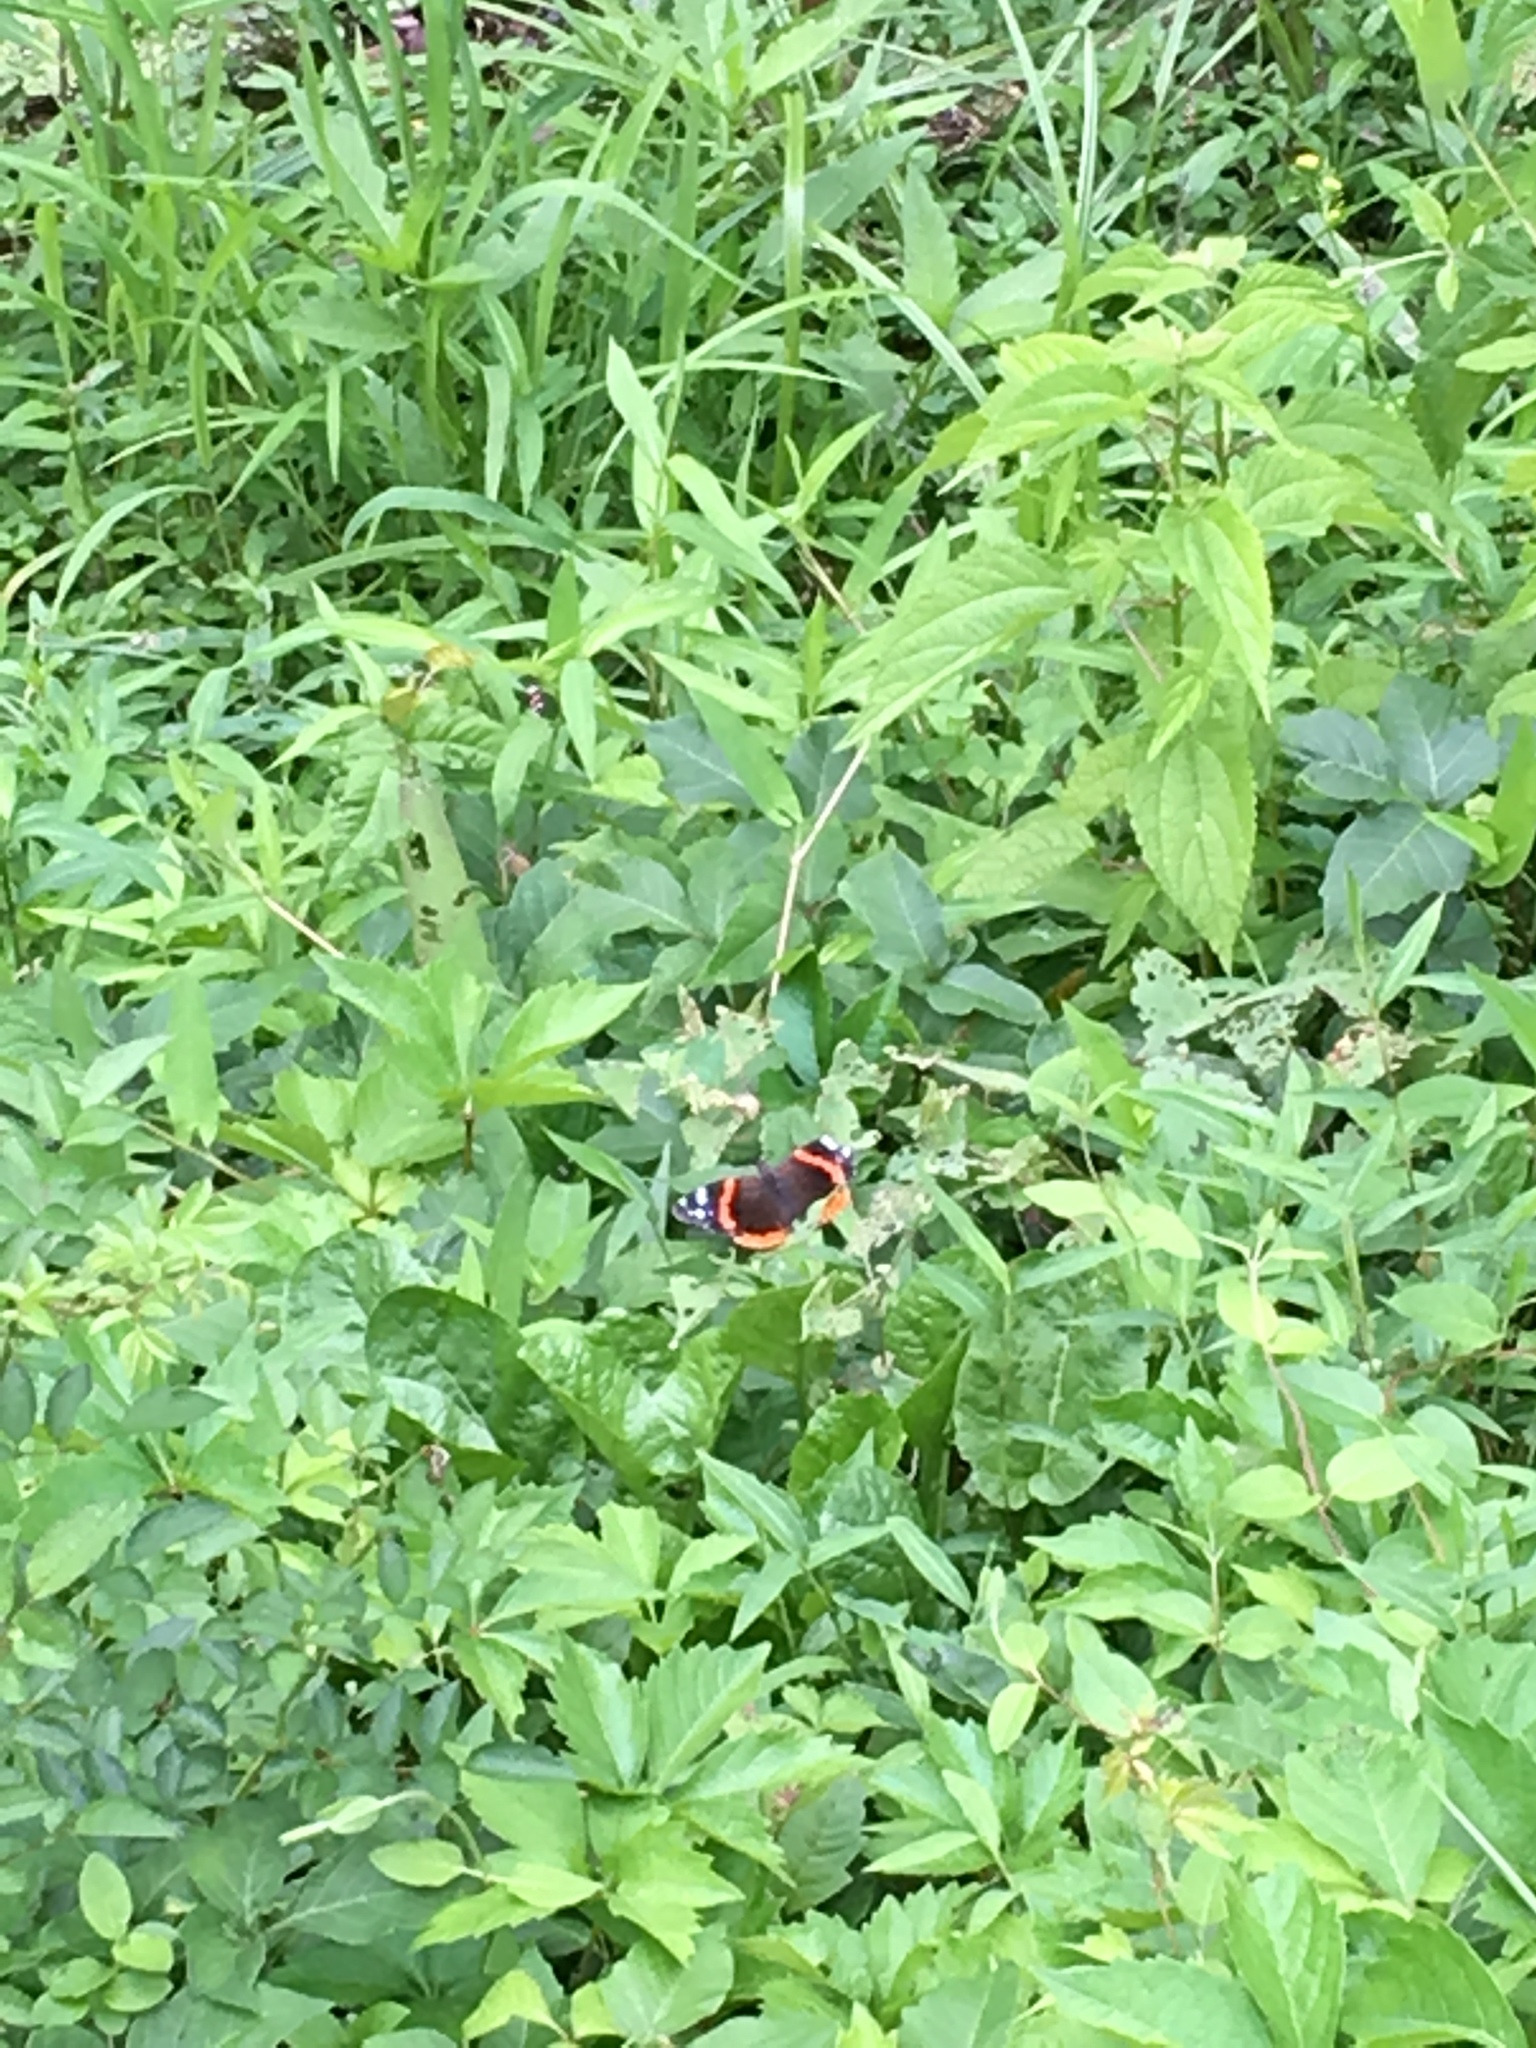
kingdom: Animalia
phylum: Arthropoda
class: Insecta
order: Lepidoptera
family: Nymphalidae
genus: Vanessa
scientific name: Vanessa atalanta
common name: Red admiral
